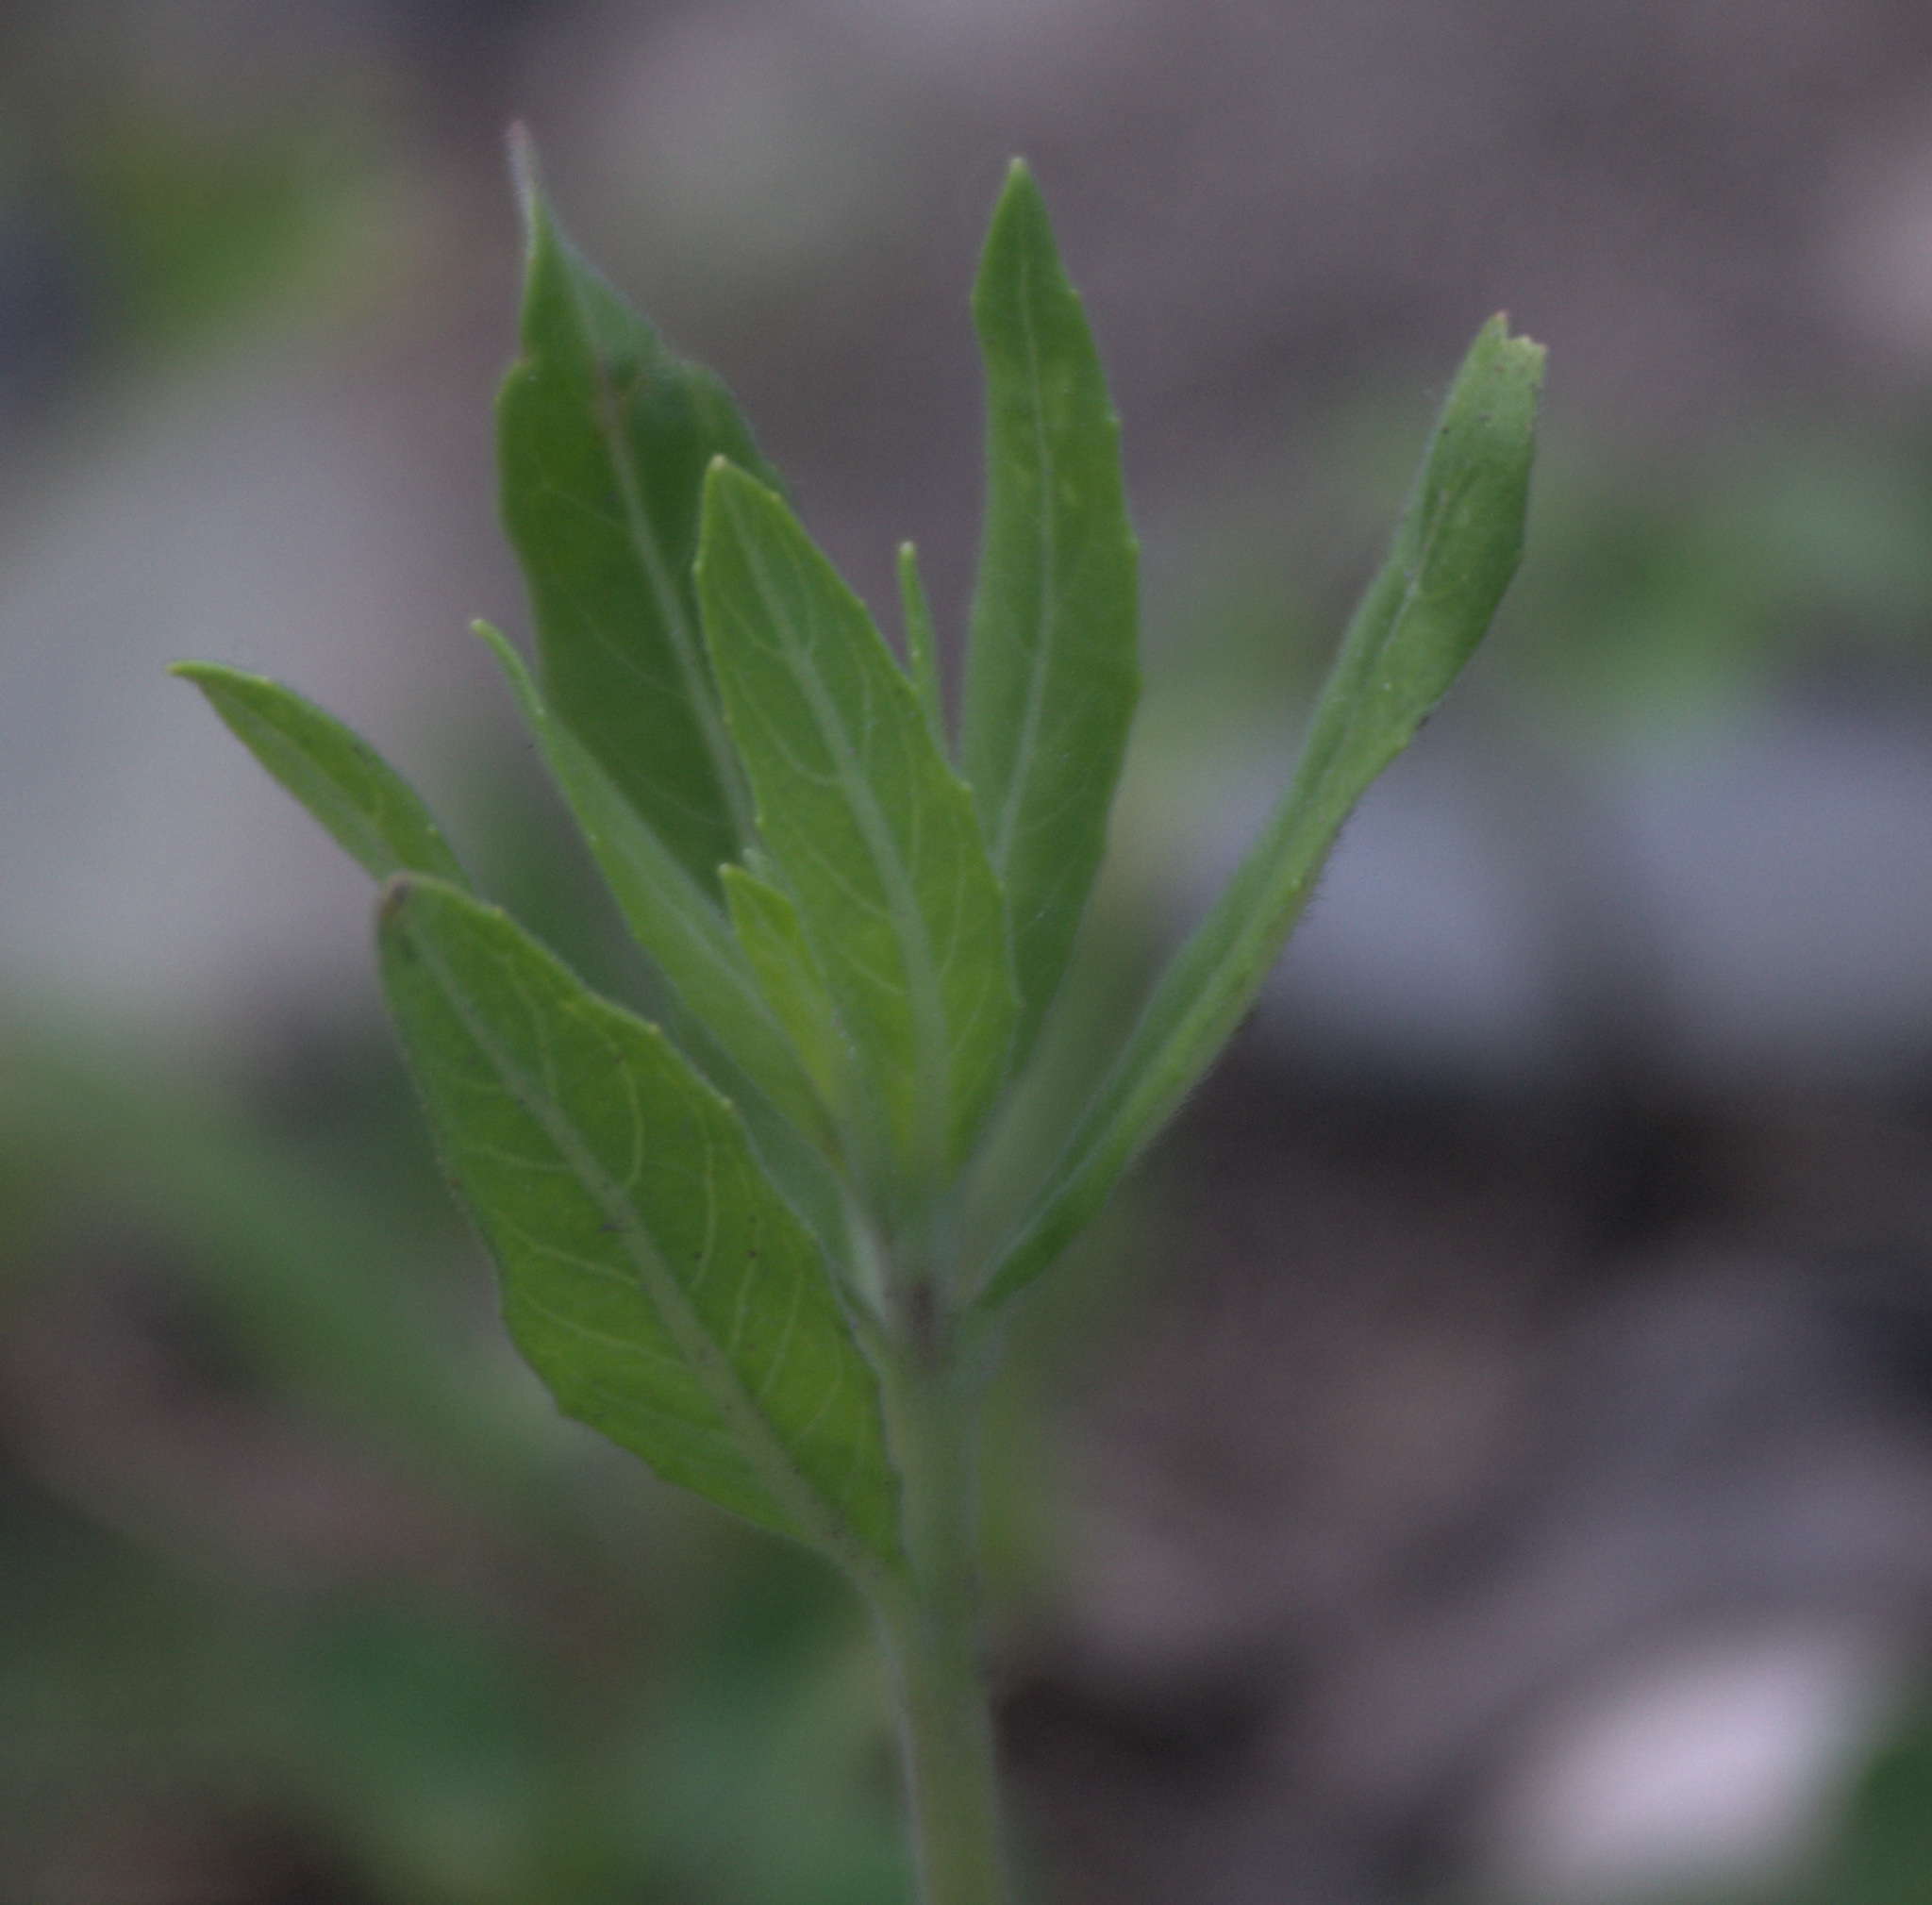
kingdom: Plantae
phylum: Tracheophyta
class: Magnoliopsida
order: Fabales
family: Fabaceae
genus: Trifolium
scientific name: Trifolium repens
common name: White clover
